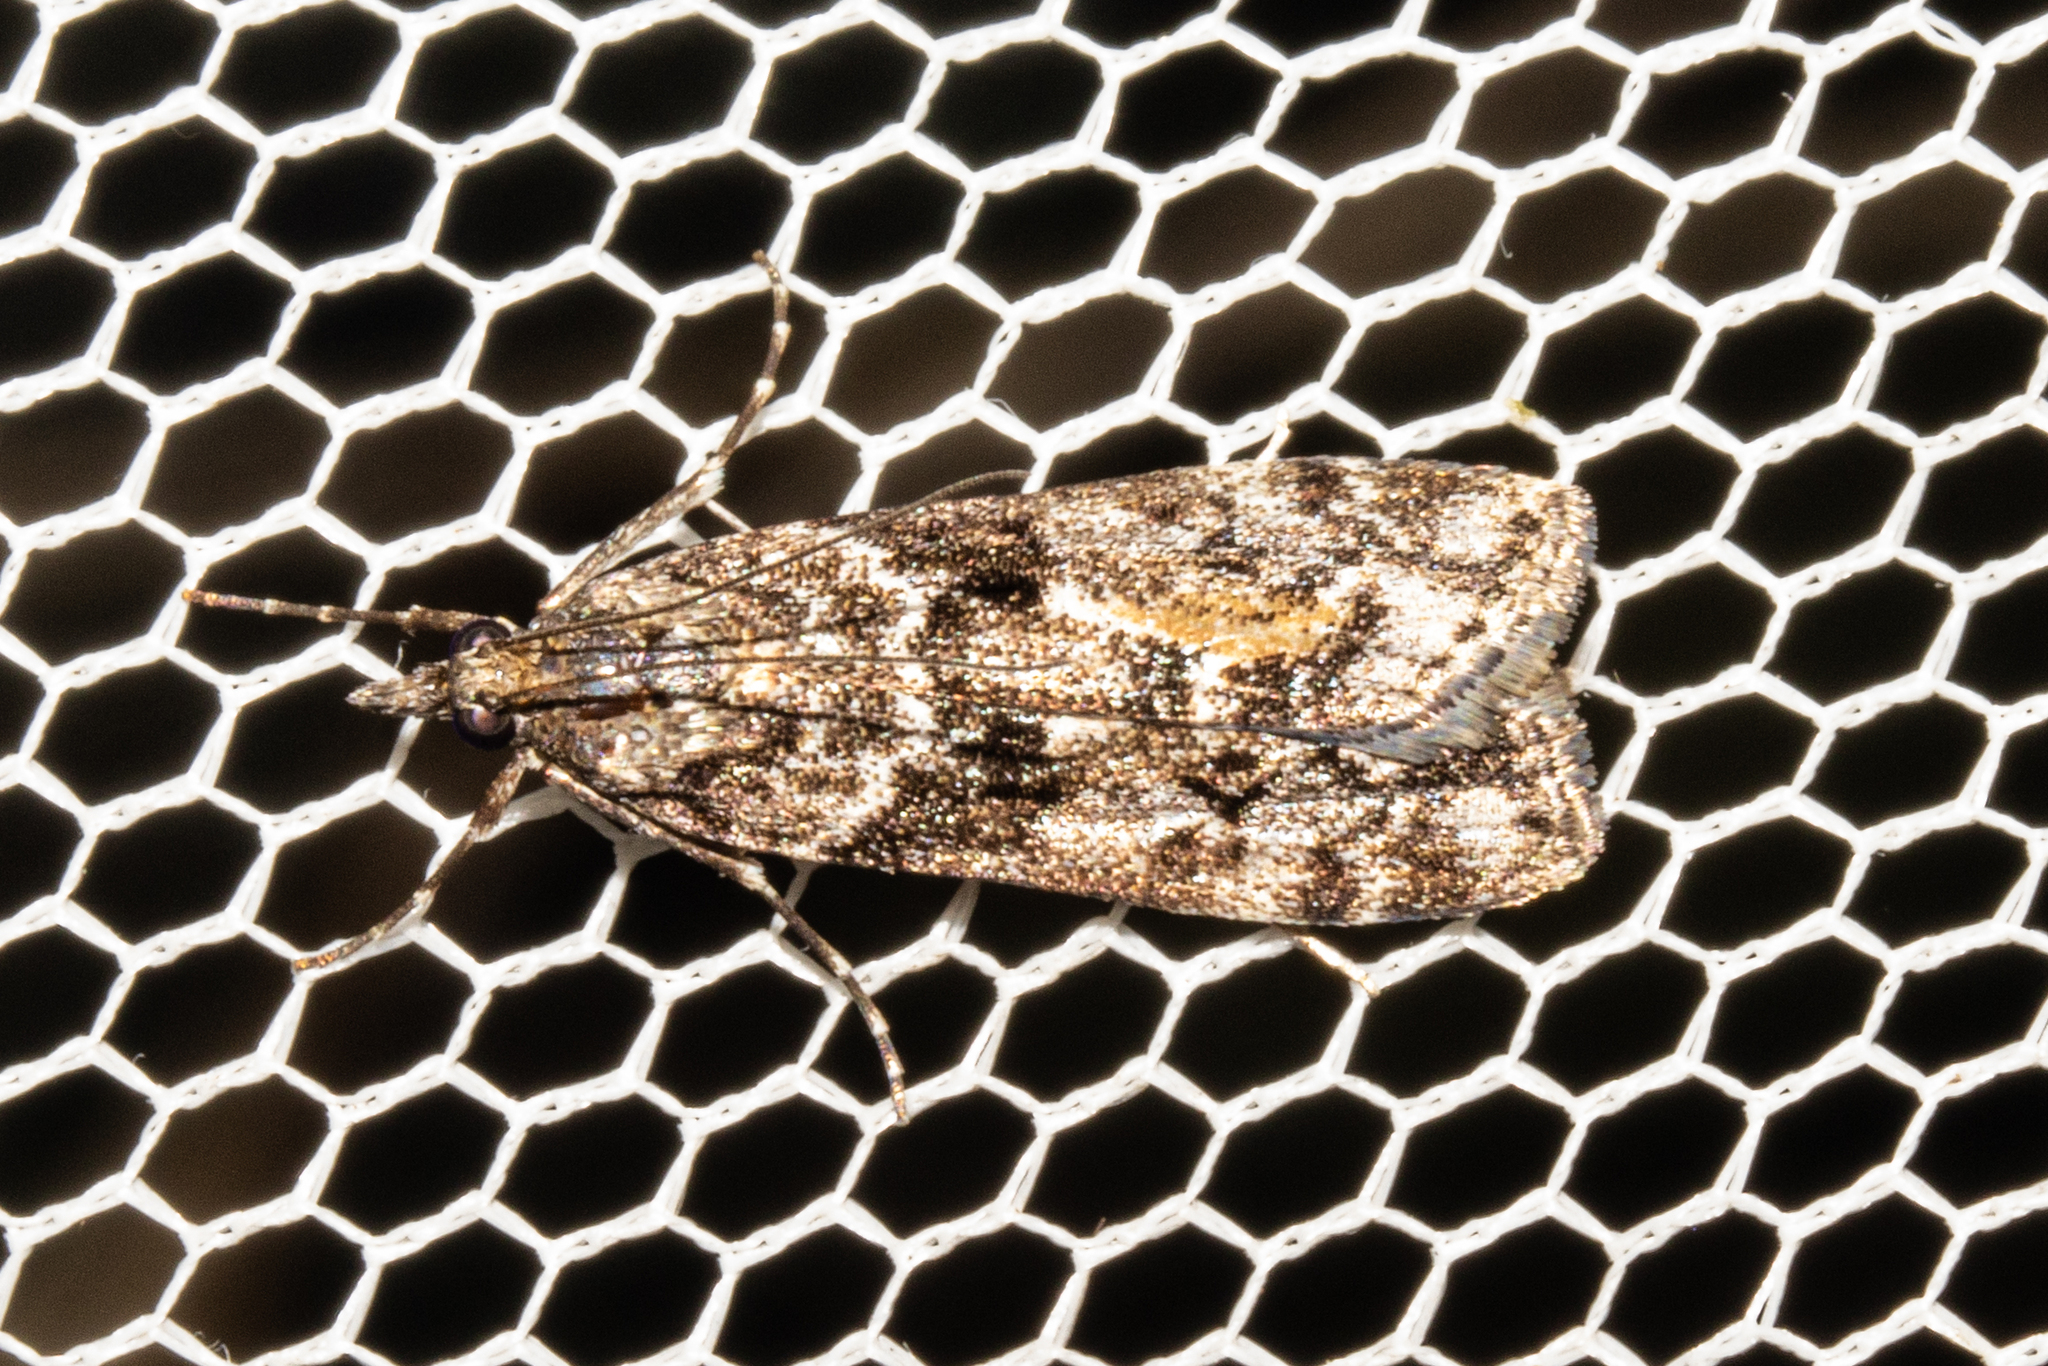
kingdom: Animalia
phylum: Arthropoda
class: Insecta
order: Lepidoptera
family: Crambidae
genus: Eudonia
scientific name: Eudonia submarginalis
